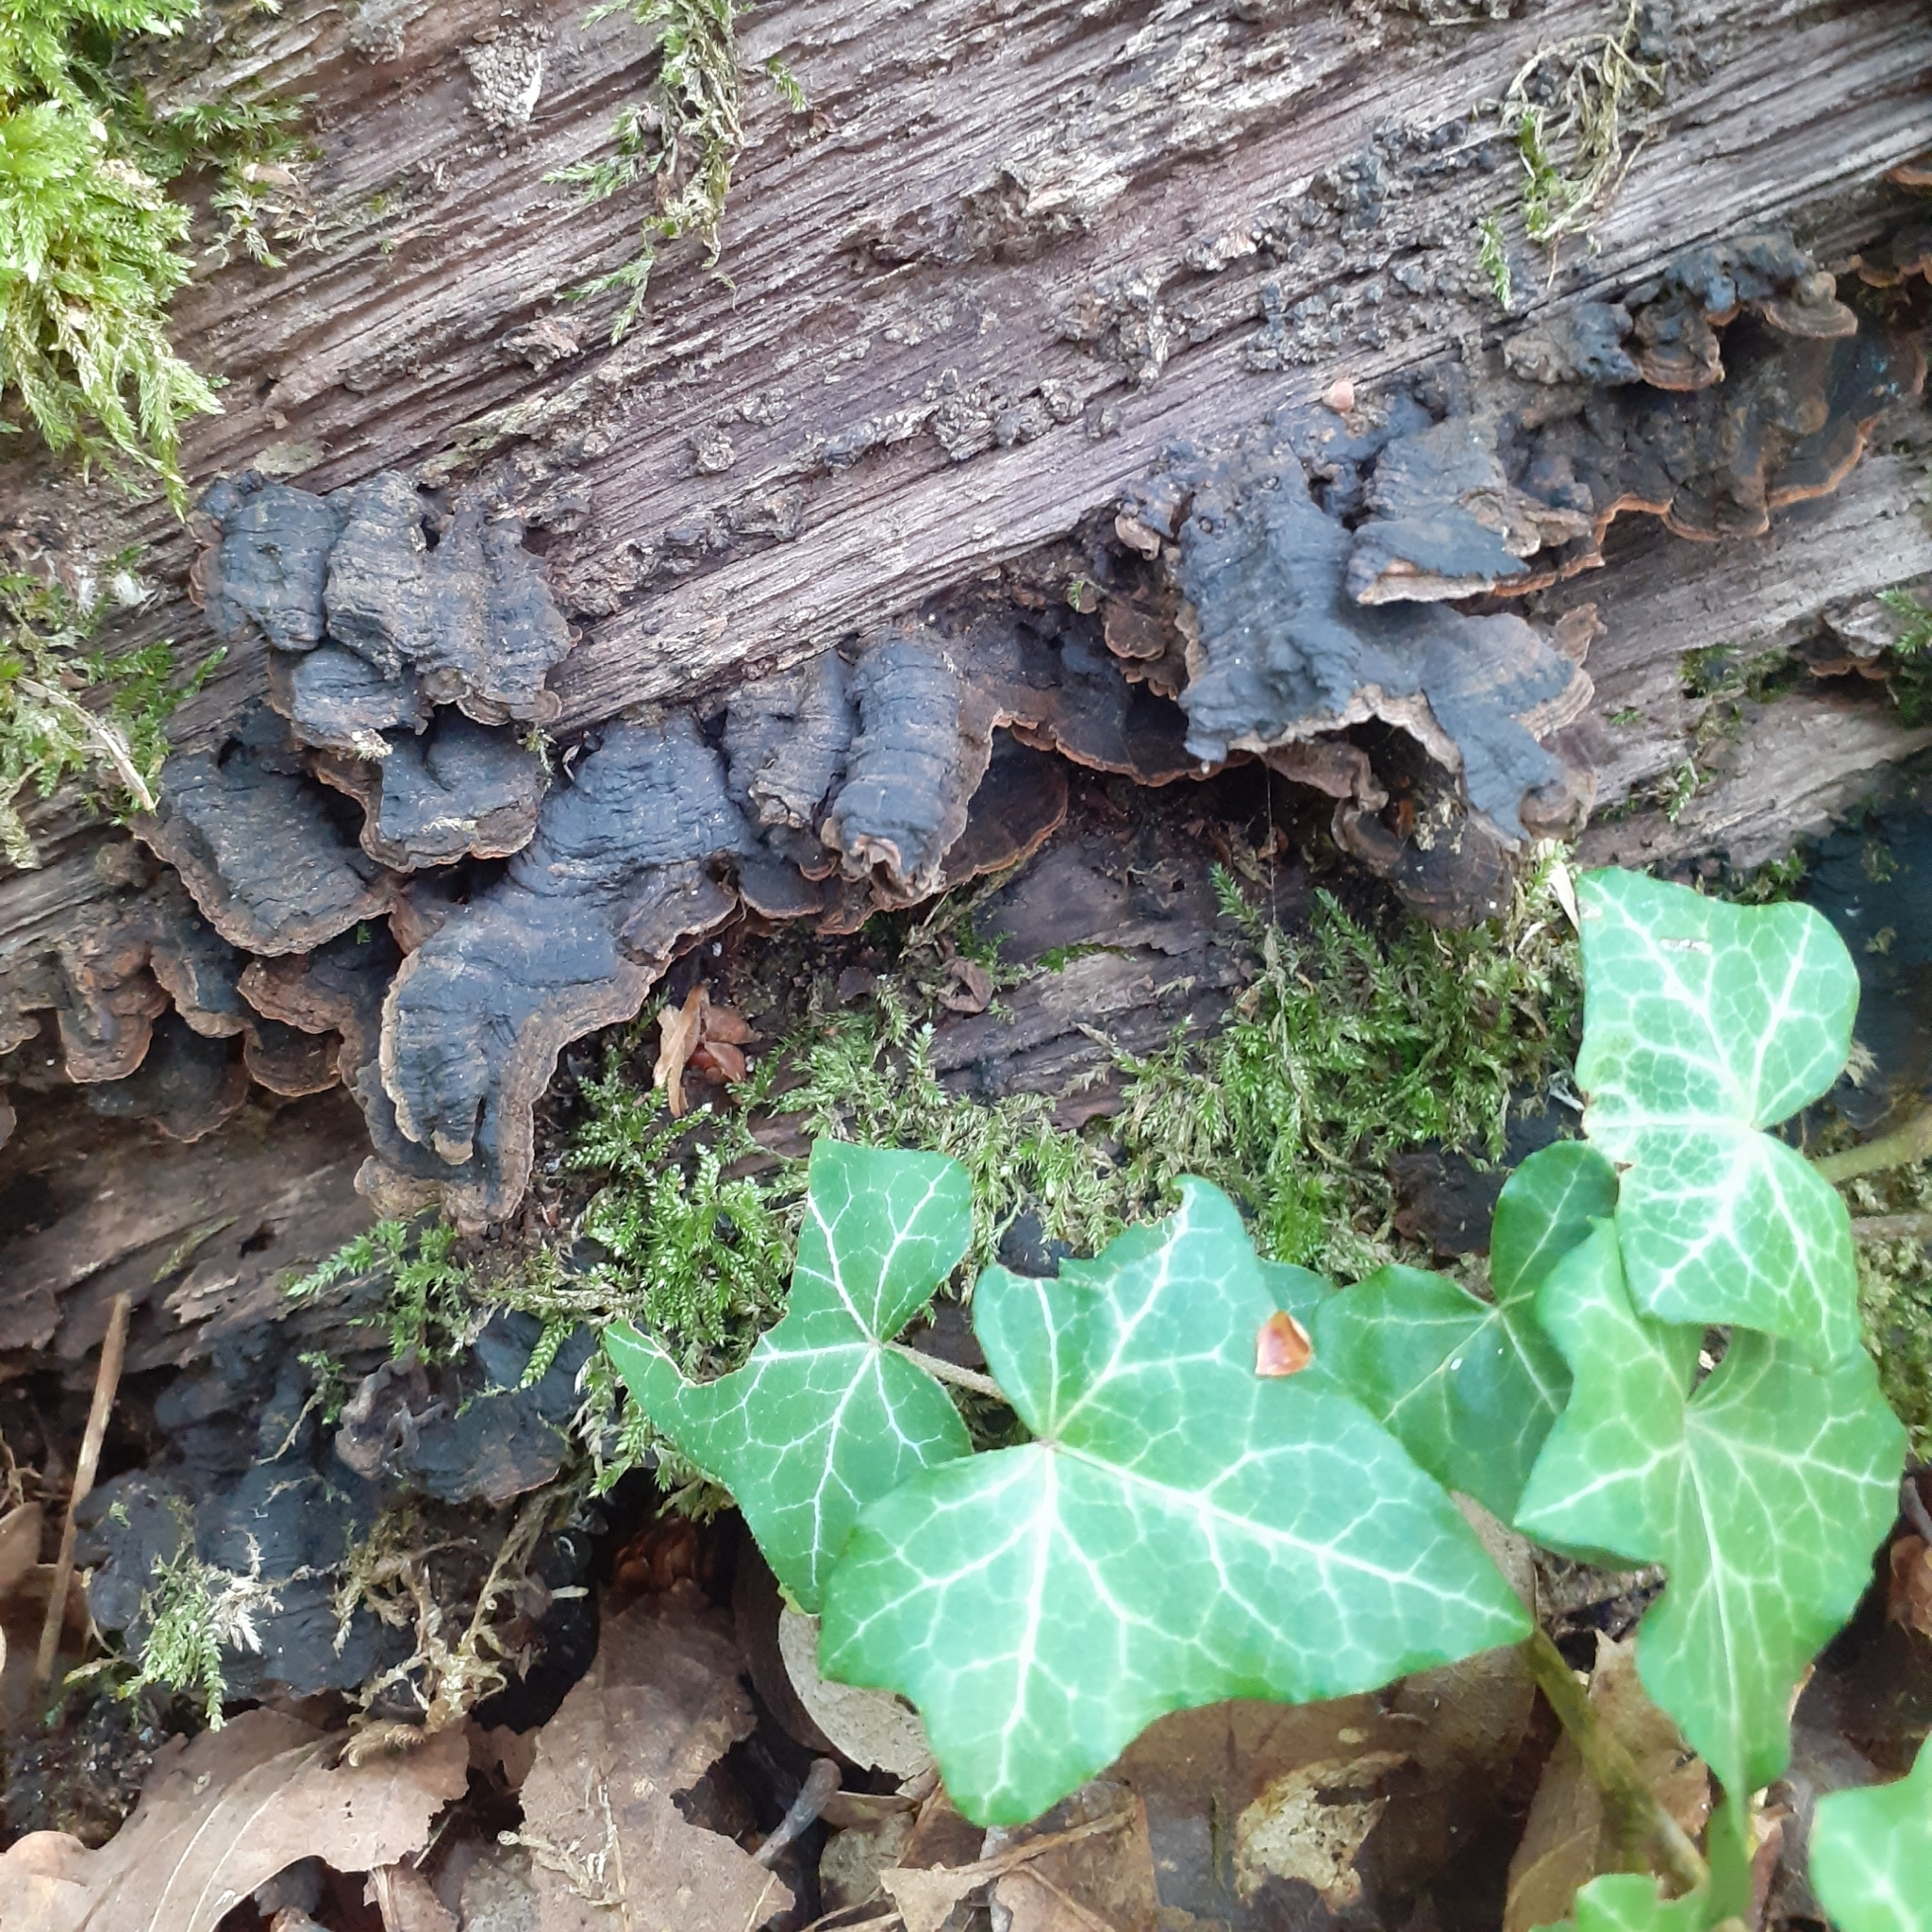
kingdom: Fungi
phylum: Basidiomycota
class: Agaricomycetes
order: Hymenochaetales
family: Hymenochaetaceae
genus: Hymenochaete
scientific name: Hymenochaete rubiginosa
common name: Oak curtain crust
